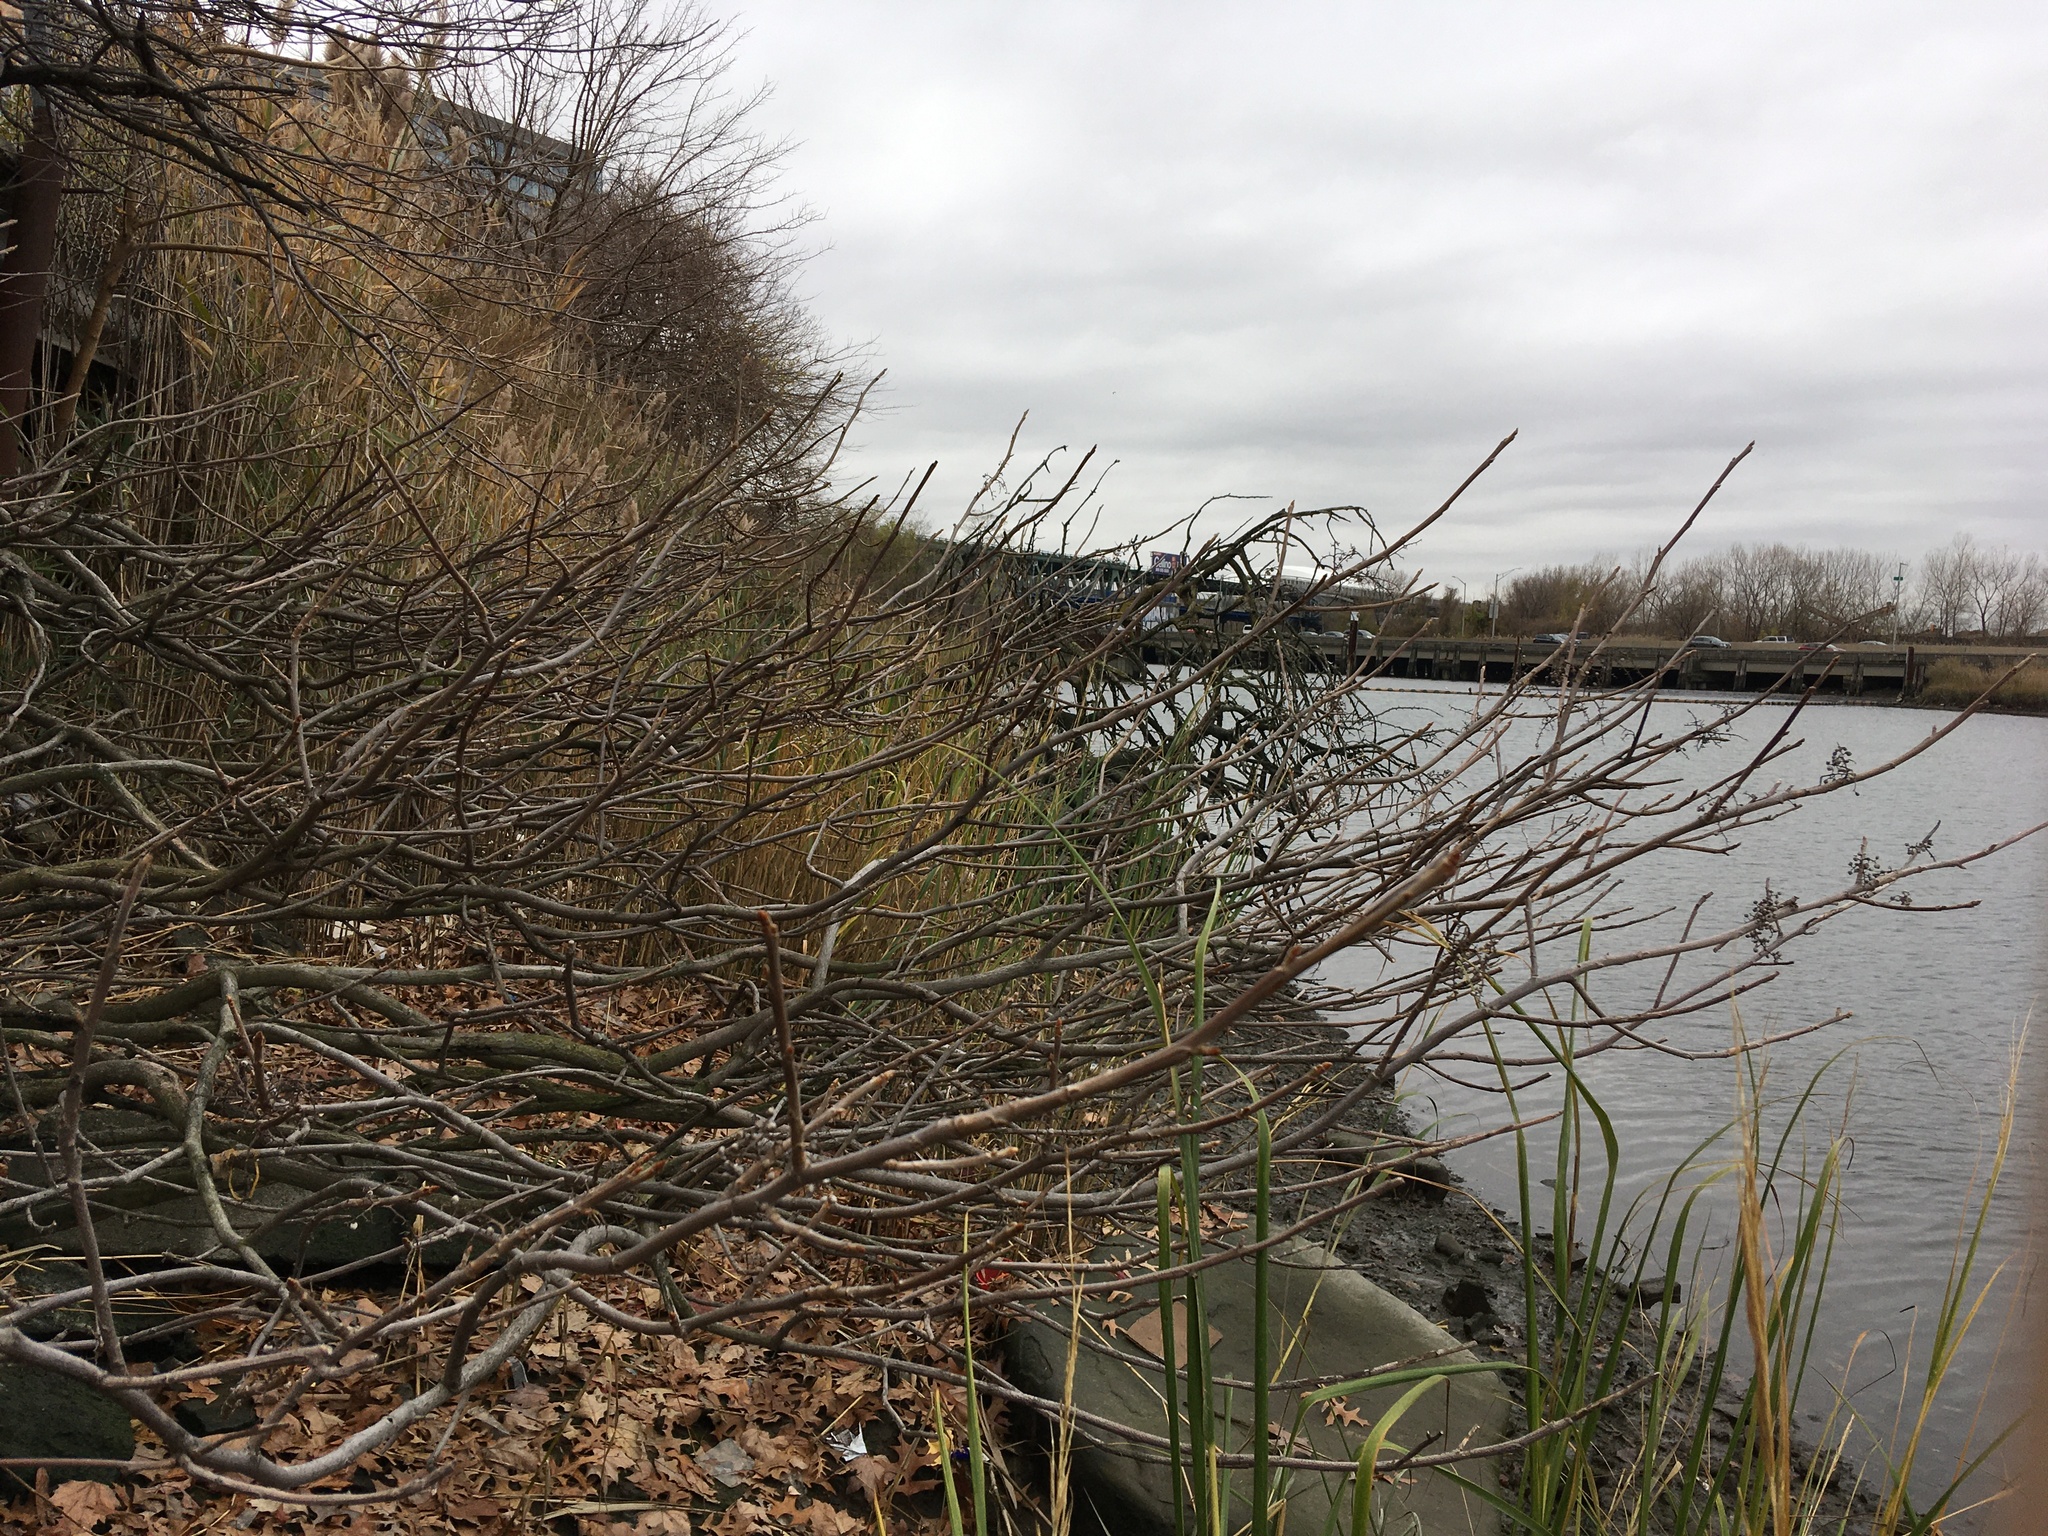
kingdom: Plantae
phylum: Tracheophyta
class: Magnoliopsida
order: Sapindales
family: Anacardiaceae
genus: Toxicodendron
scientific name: Toxicodendron radicans
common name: Poison ivy
